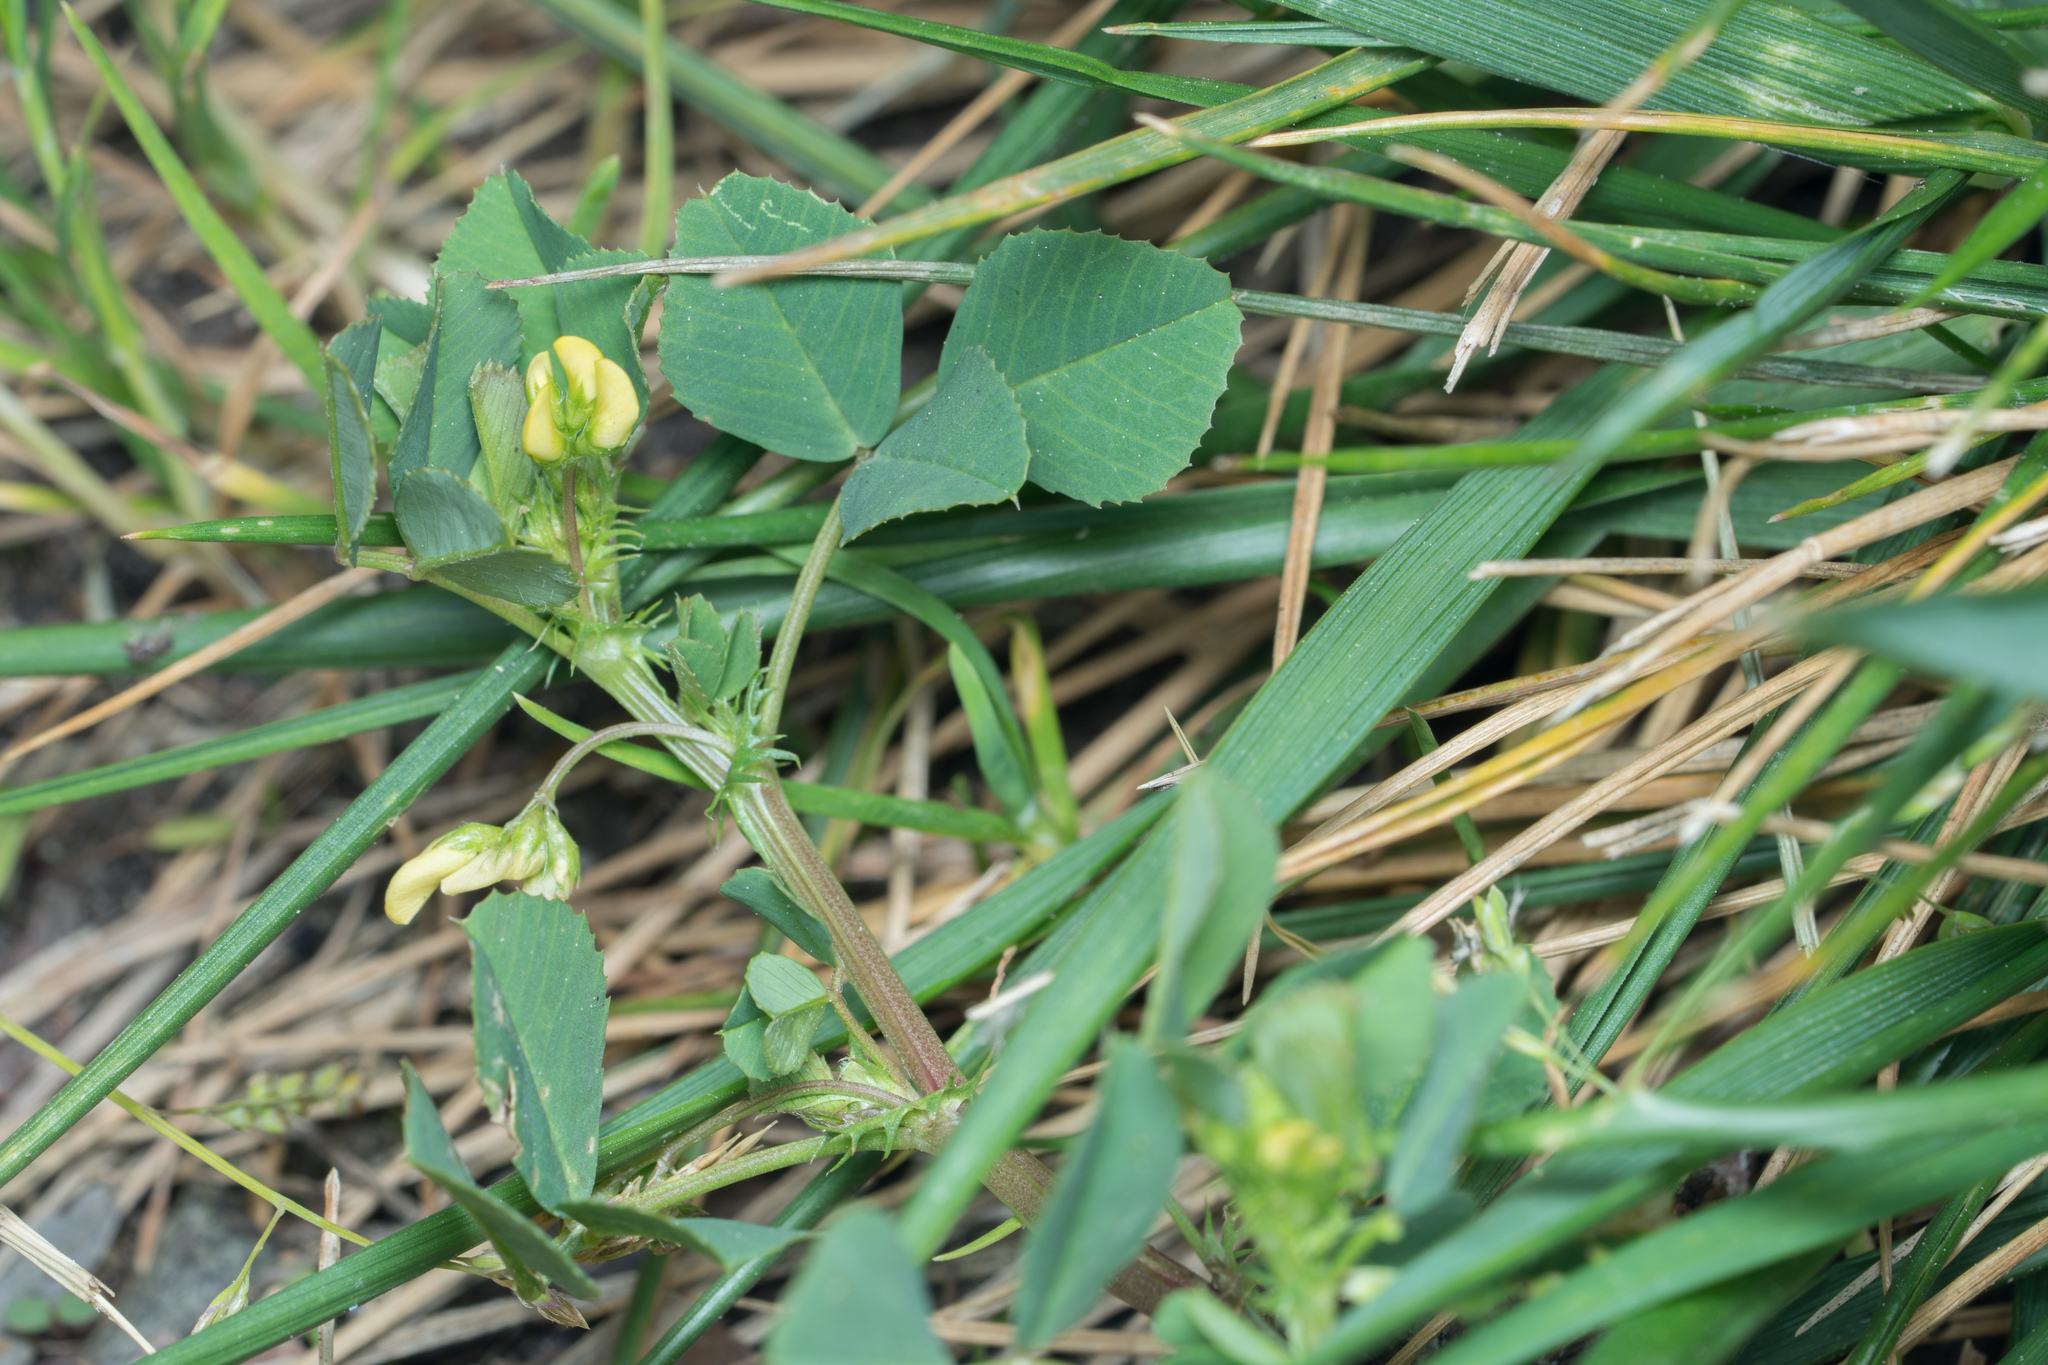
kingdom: Plantae
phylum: Tracheophyta
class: Magnoliopsida
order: Fabales
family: Fabaceae
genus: Medicago
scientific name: Medicago polymorpha
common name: Burclover
